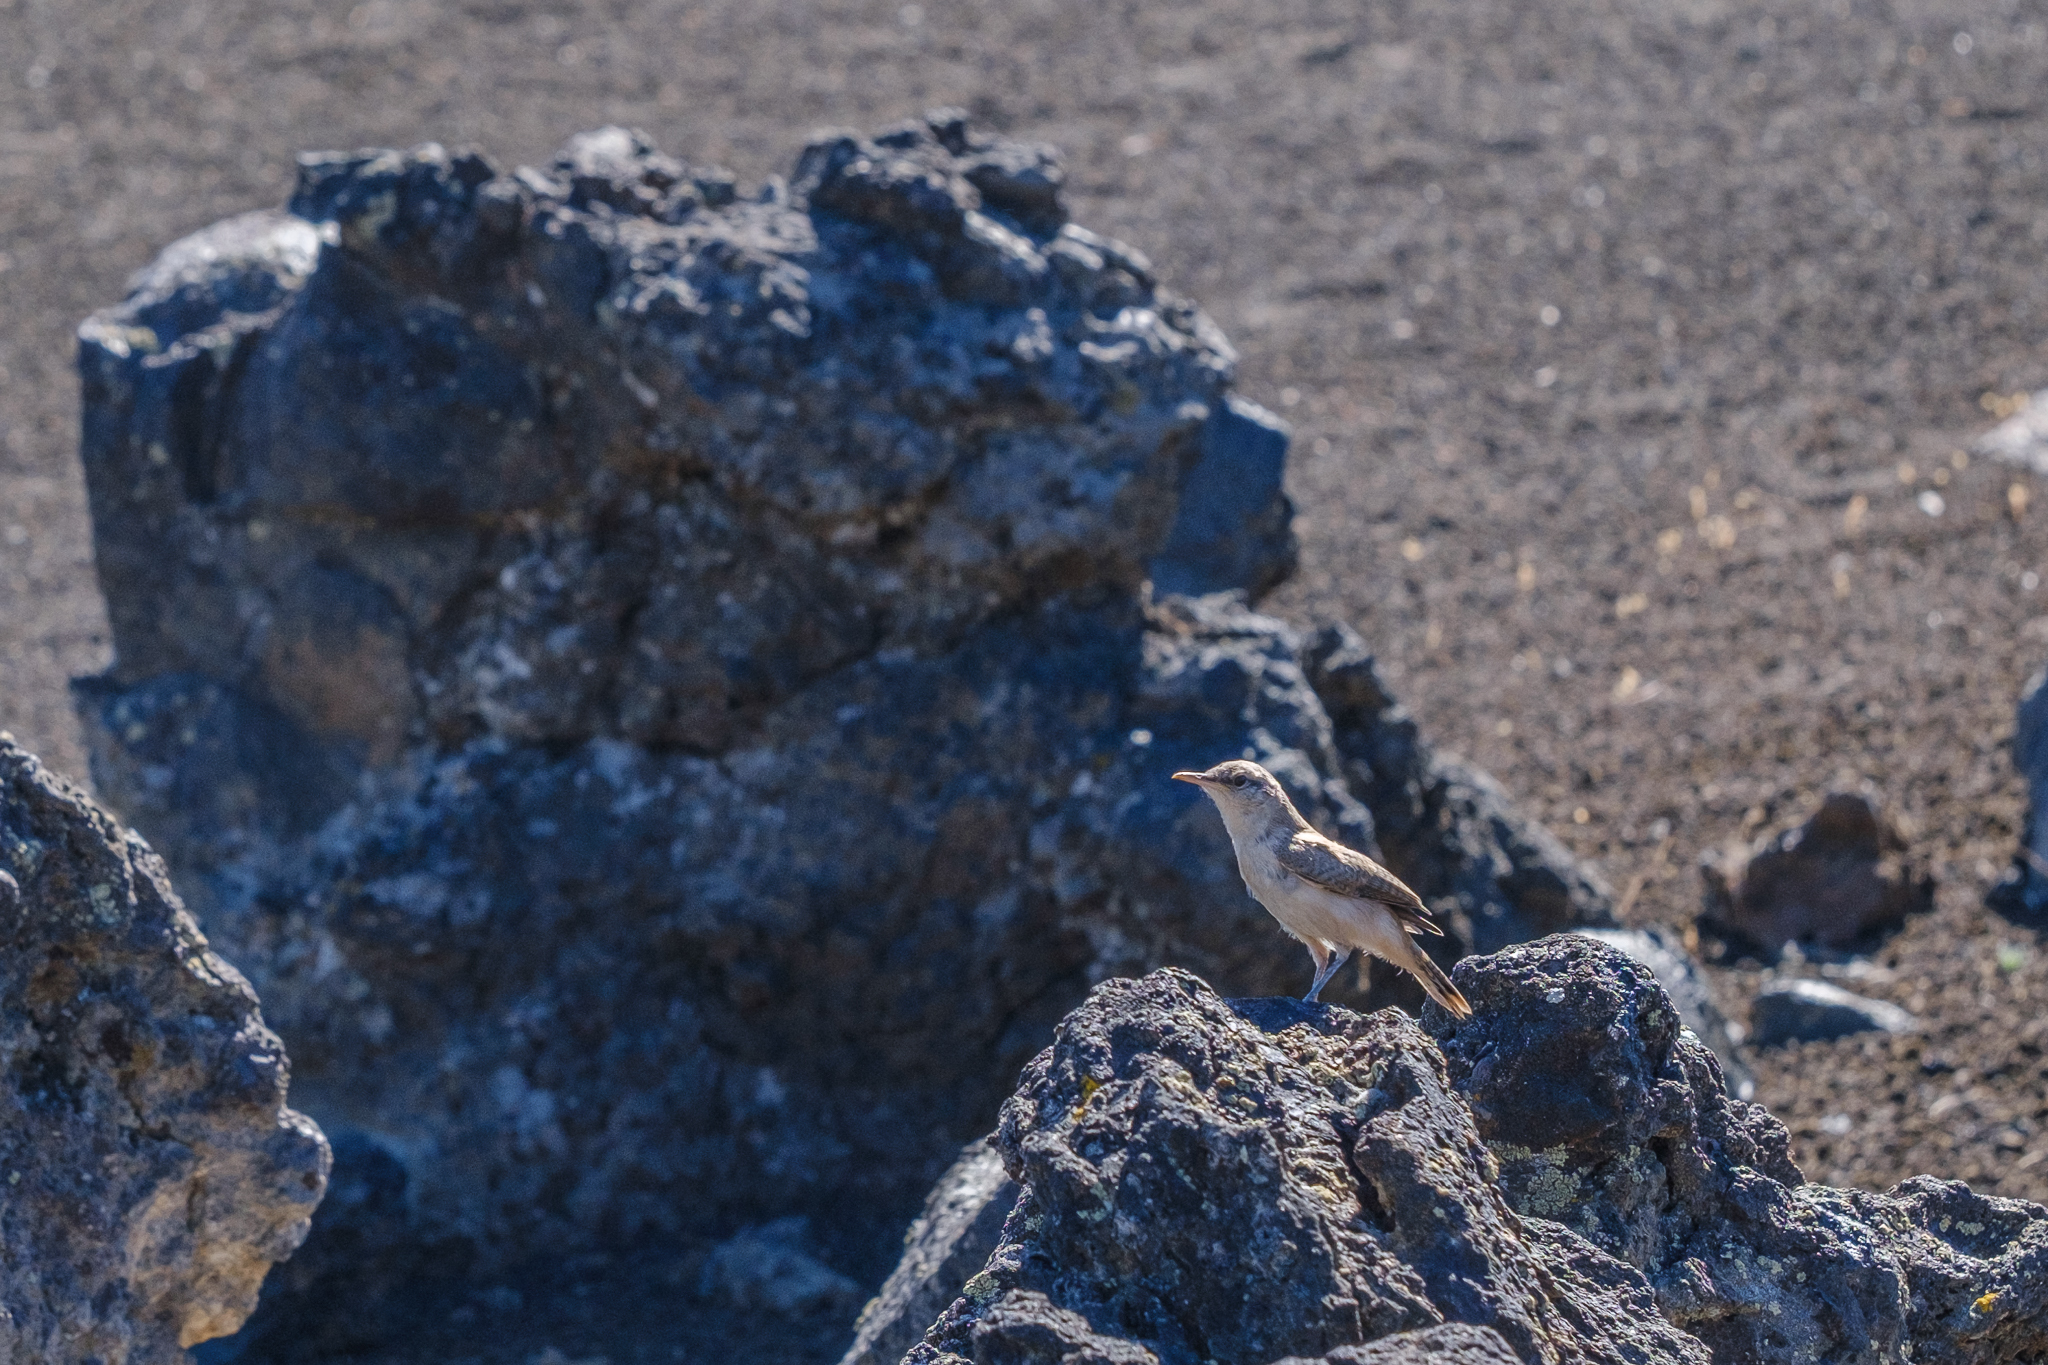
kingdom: Animalia
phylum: Chordata
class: Aves
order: Passeriformes
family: Troglodytidae
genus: Salpinctes
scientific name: Salpinctes obsoletus
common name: Rock wren
